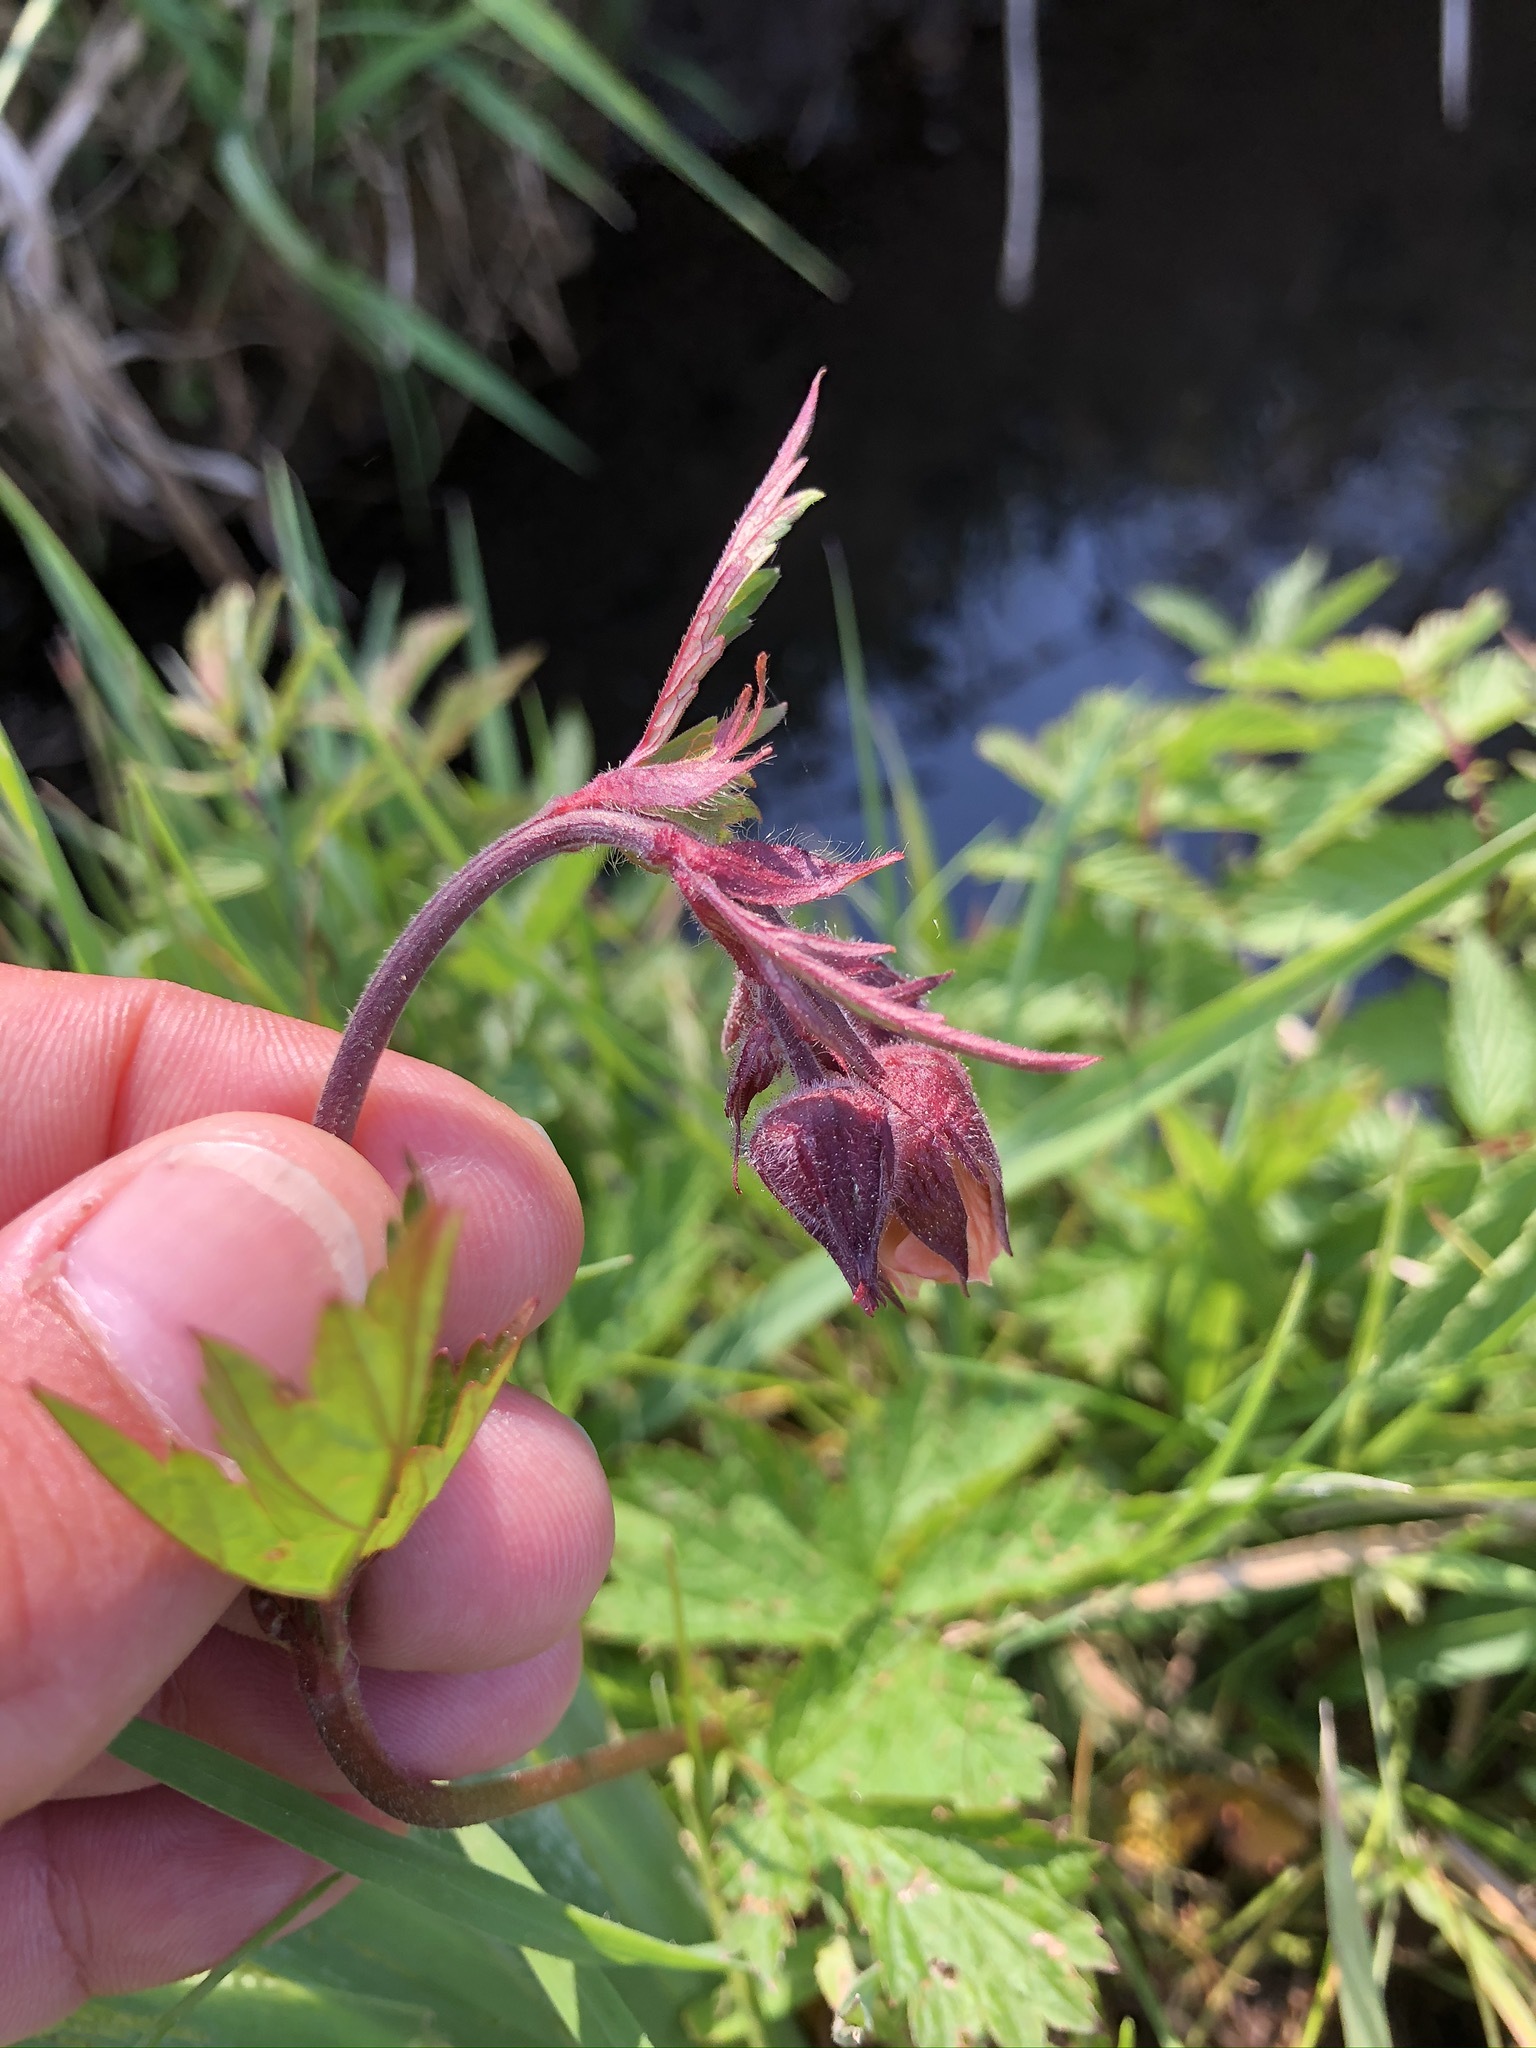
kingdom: Plantae
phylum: Tracheophyta
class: Magnoliopsida
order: Rosales
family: Rosaceae
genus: Geum
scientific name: Geum rivale
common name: Water avens
